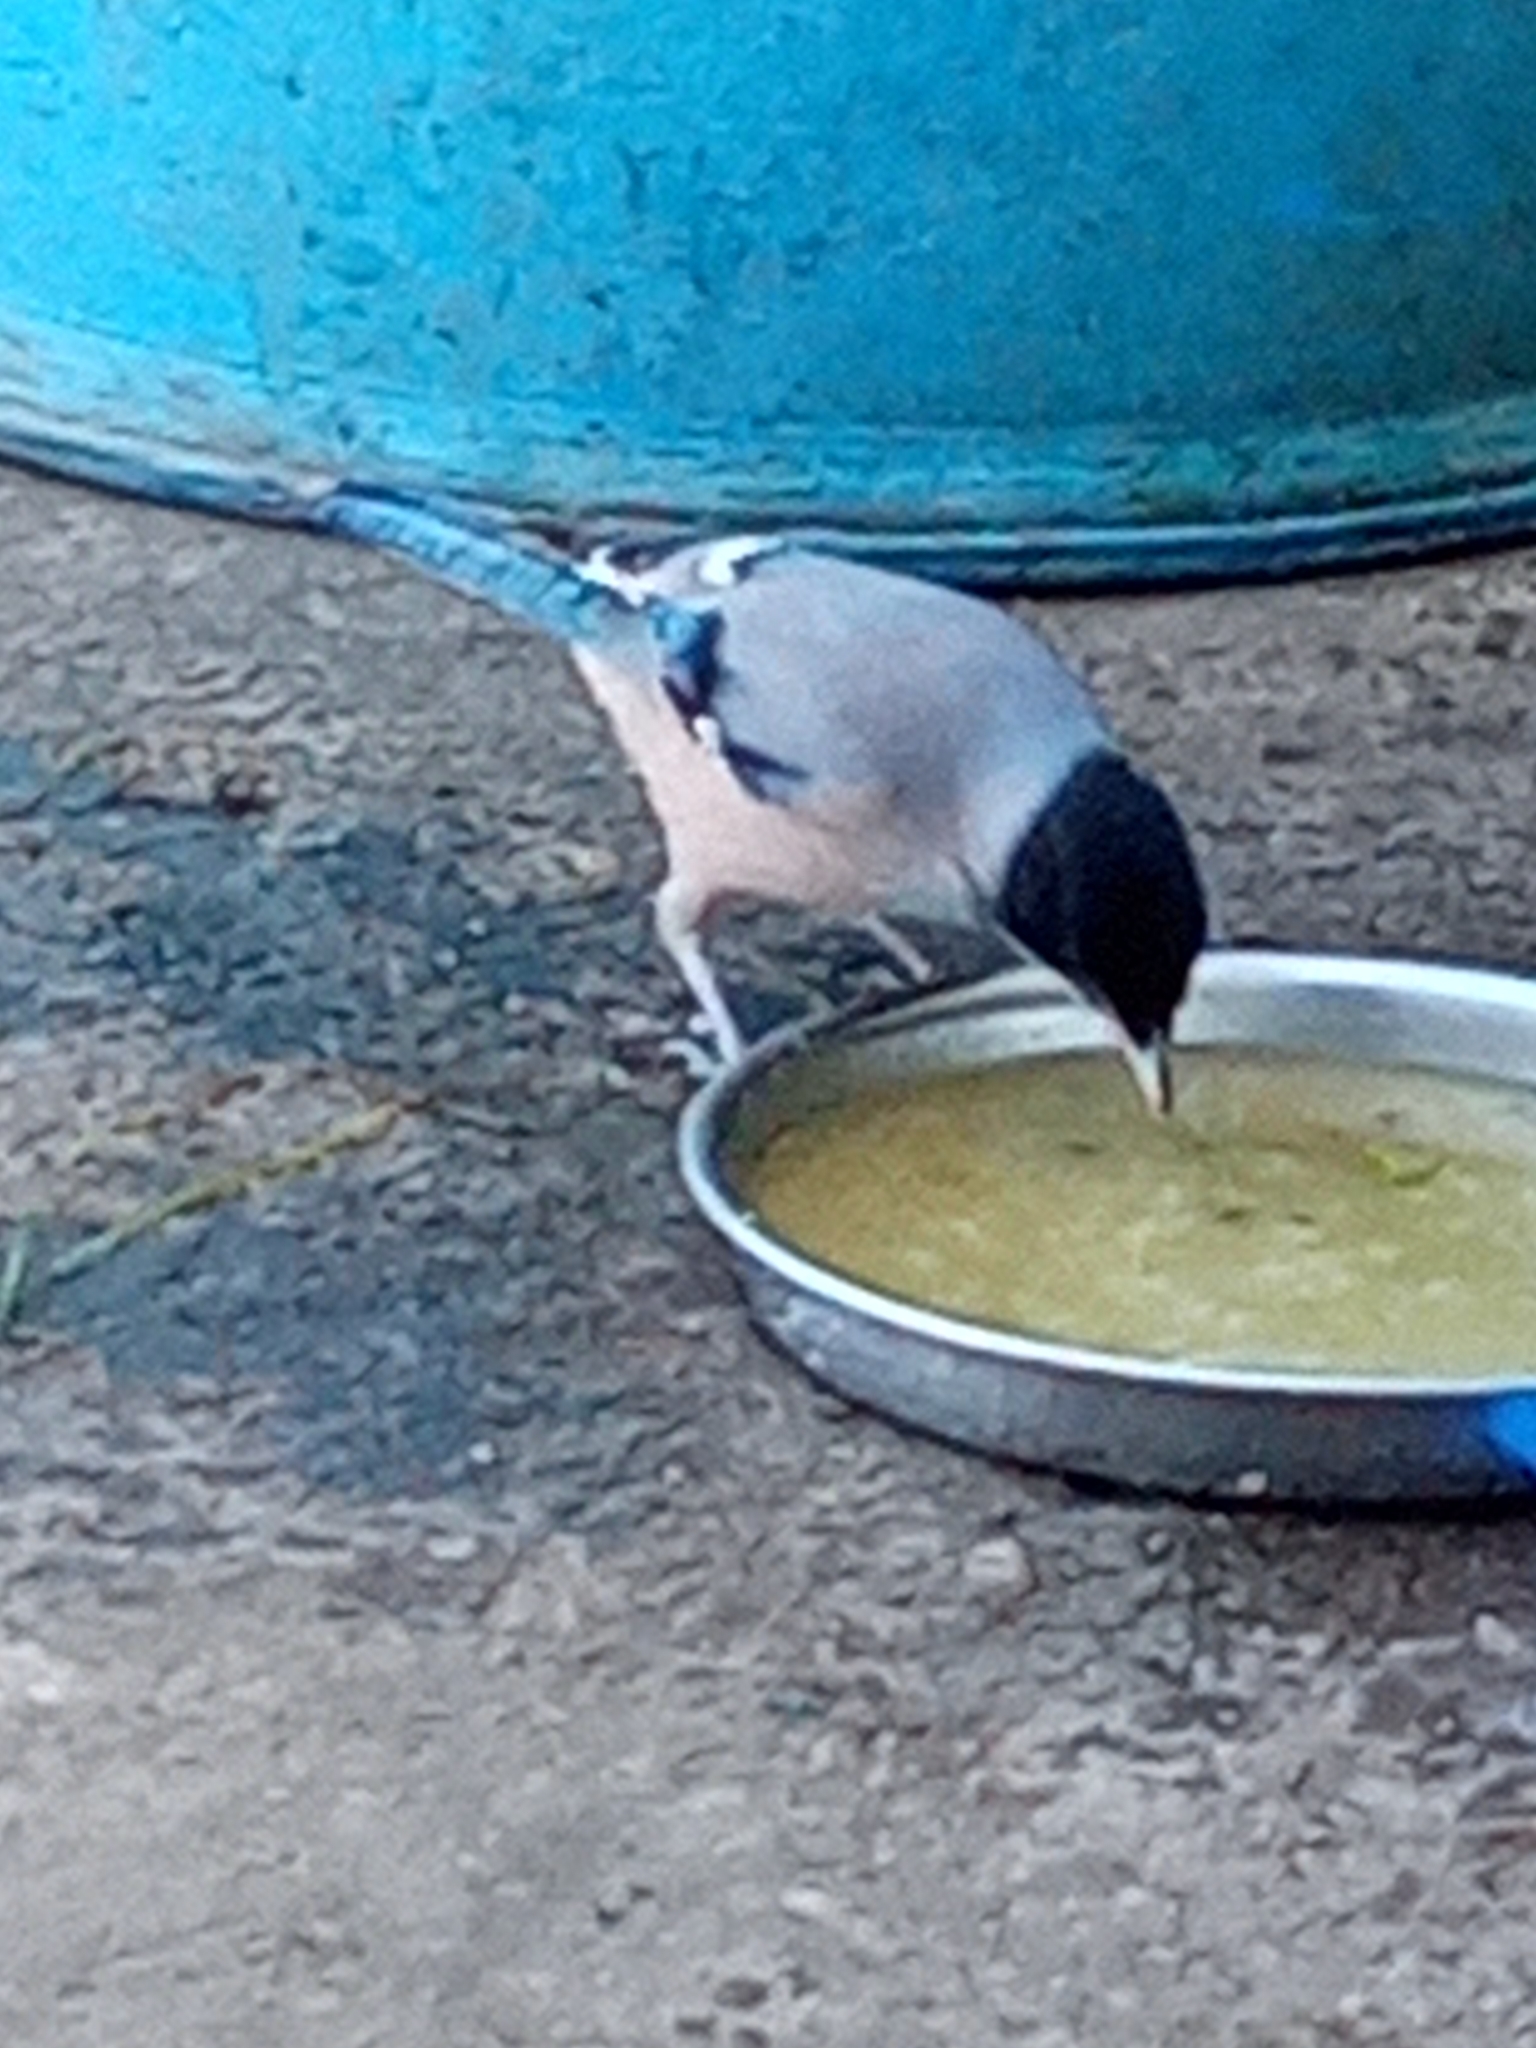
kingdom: Animalia
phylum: Chordata
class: Aves
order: Passeriformes
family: Corvidae
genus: Garrulus
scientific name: Garrulus lanceolatus
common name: Black-headed jay
